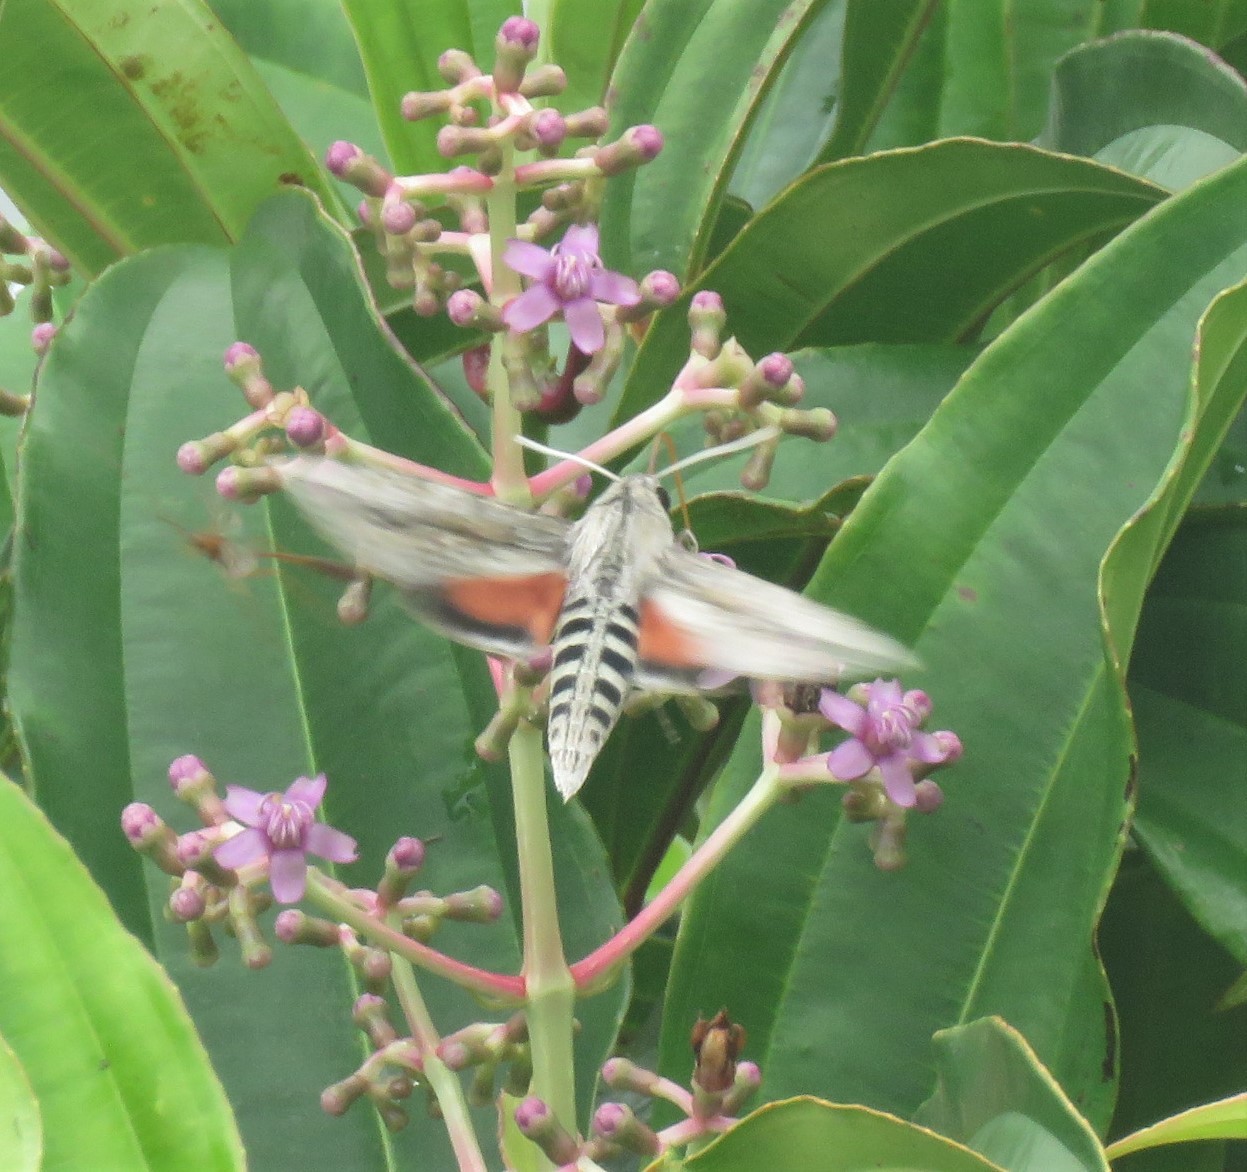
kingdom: Animalia
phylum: Arthropoda
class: Insecta
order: Lepidoptera
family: Sphingidae
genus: Erinnyis
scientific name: Erinnyis ello
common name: Ello sphinx
